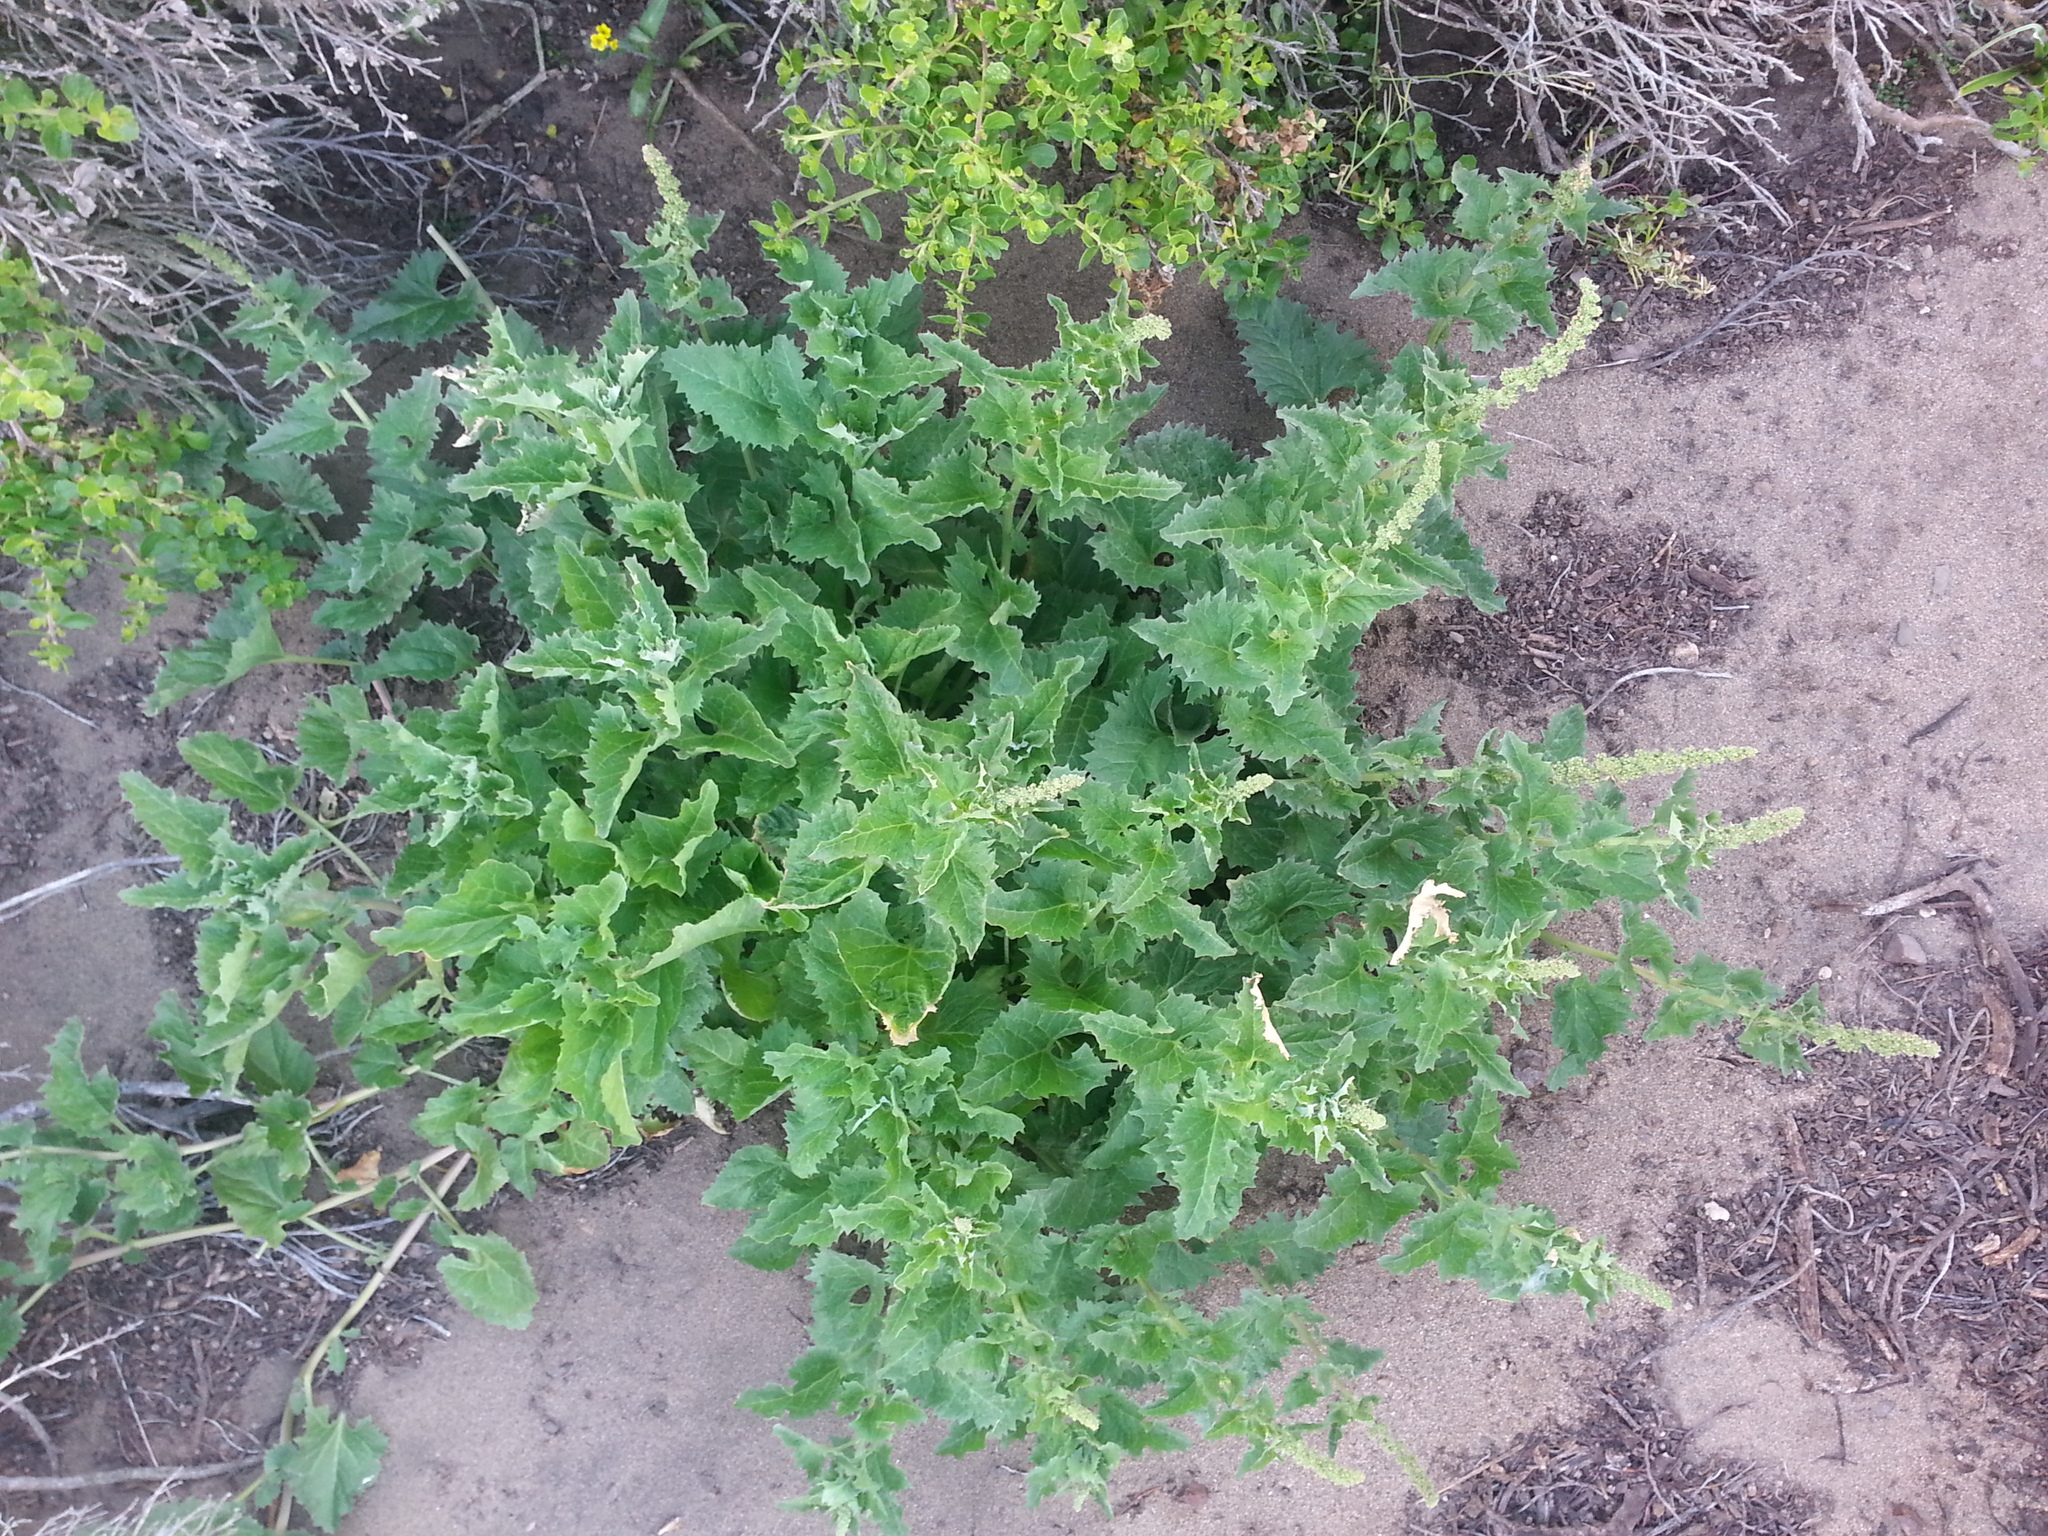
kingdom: Plantae
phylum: Tracheophyta
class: Magnoliopsida
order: Caryophyllales
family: Amaranthaceae
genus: Blitum
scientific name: Blitum californicum
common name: California goosefoot
